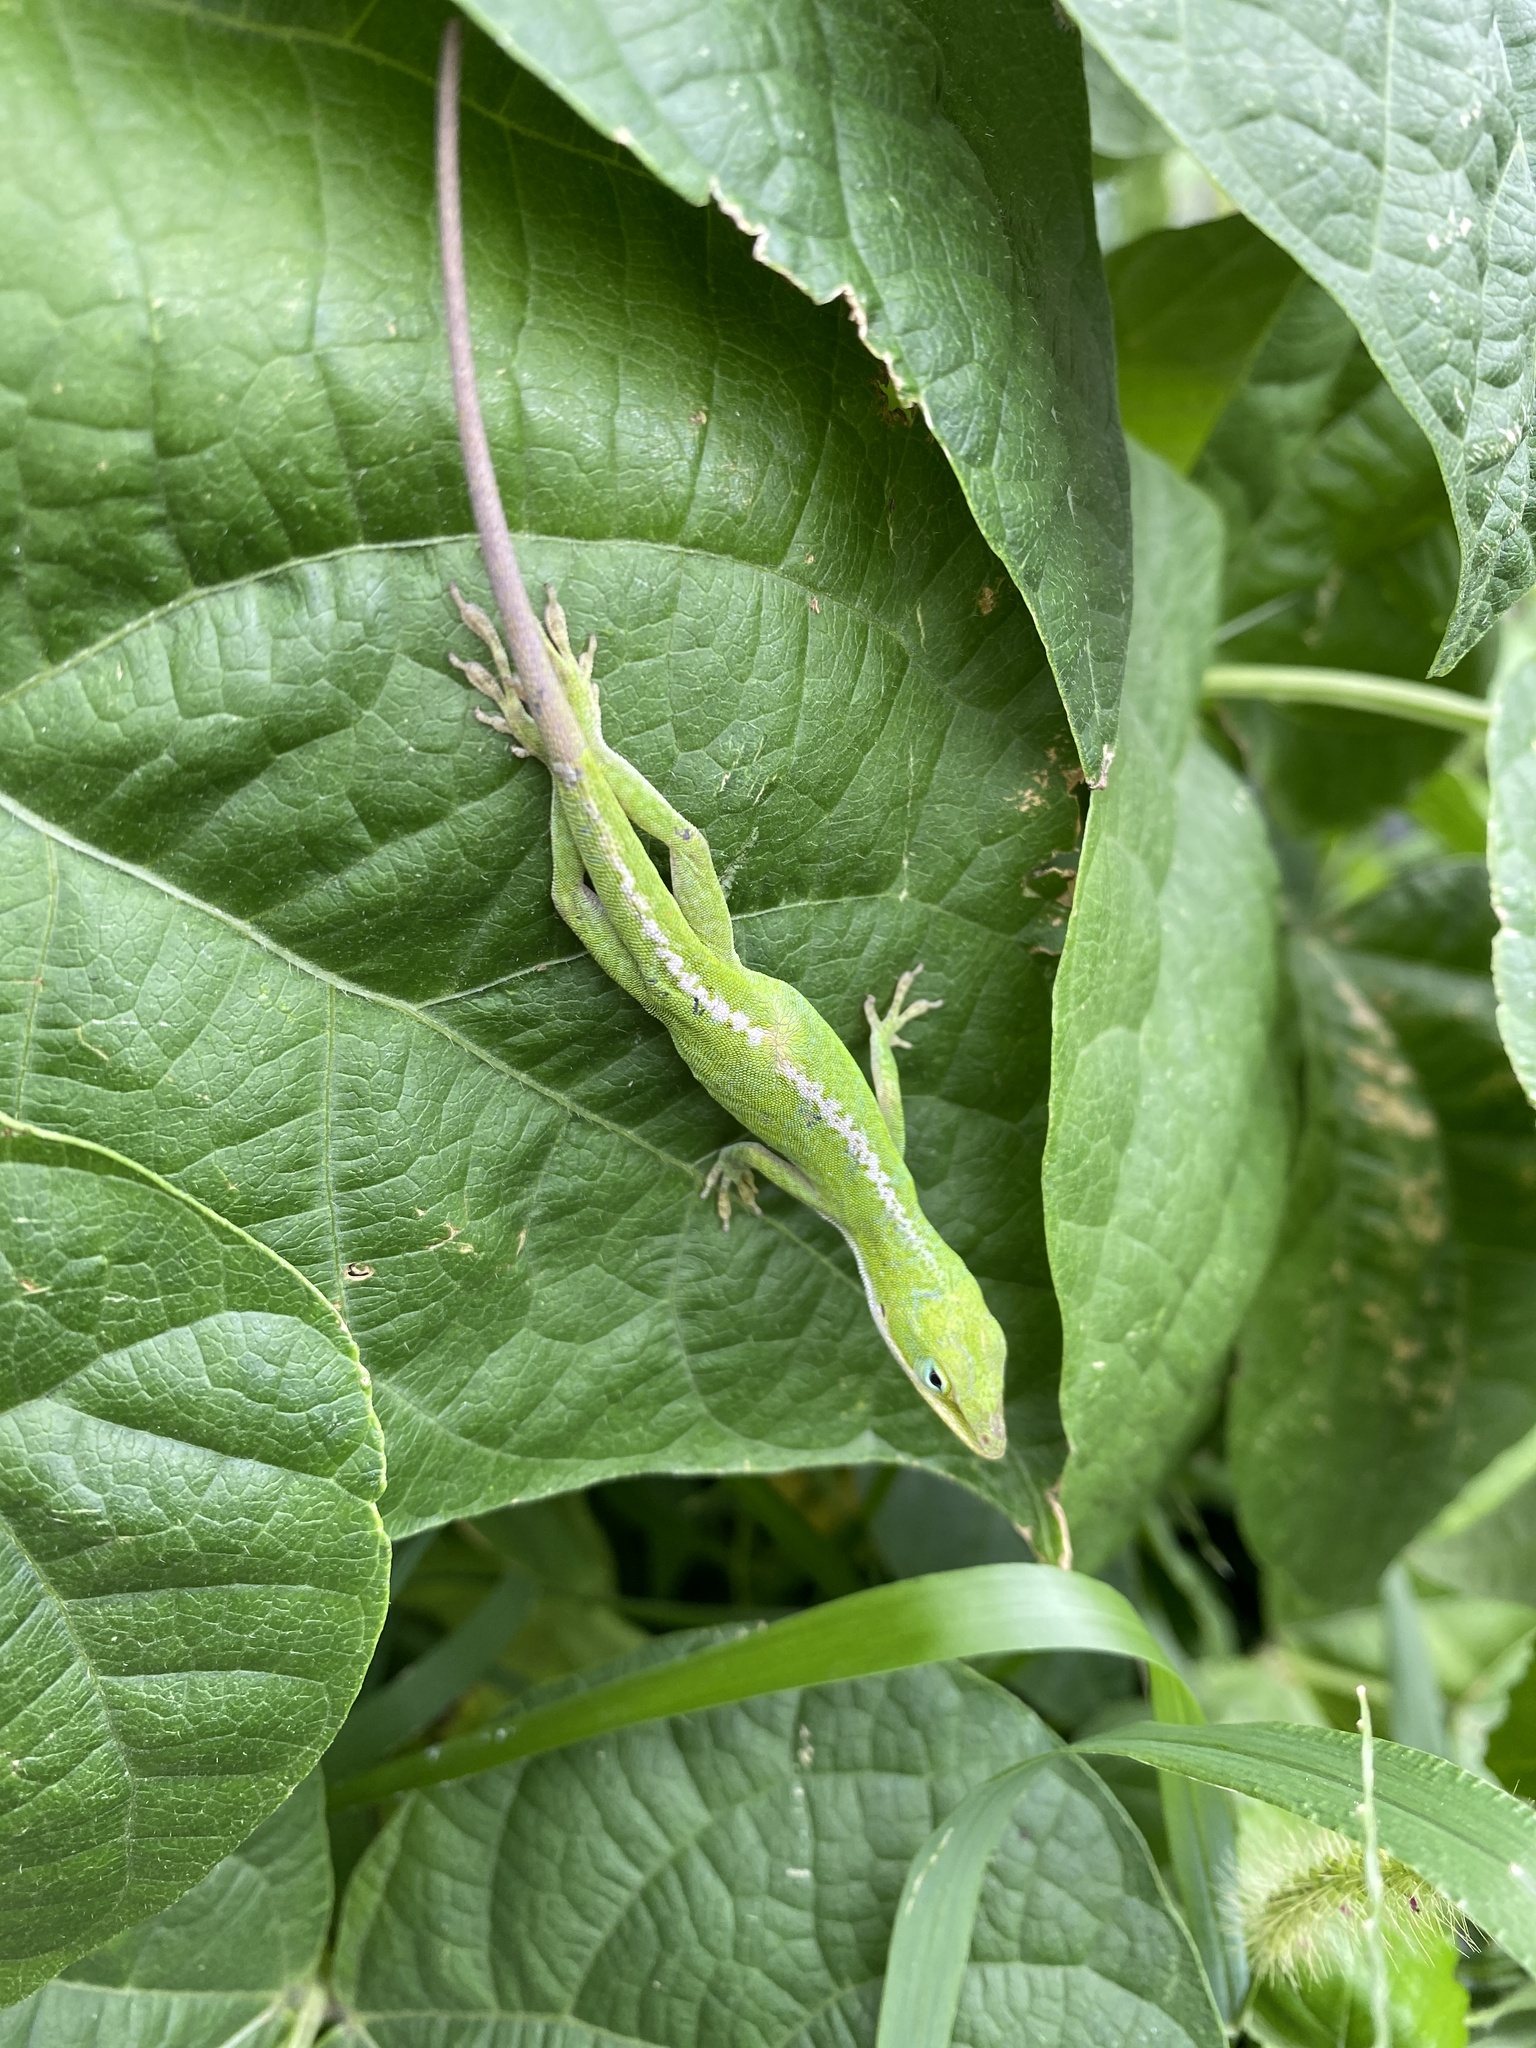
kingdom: Animalia
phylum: Chordata
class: Squamata
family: Dactyloidae
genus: Anolis
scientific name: Anolis carolinensis
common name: Green anole
